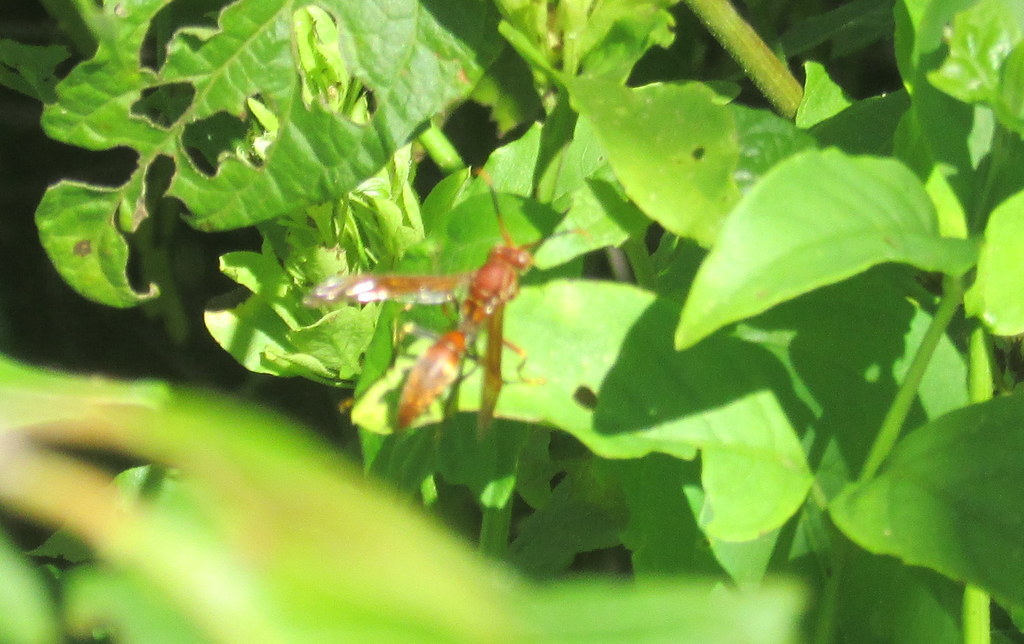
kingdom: Animalia
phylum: Arthropoda
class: Insecta
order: Hymenoptera
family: Pompilidae
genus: Aphanilopterus
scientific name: Aphanilopterus
